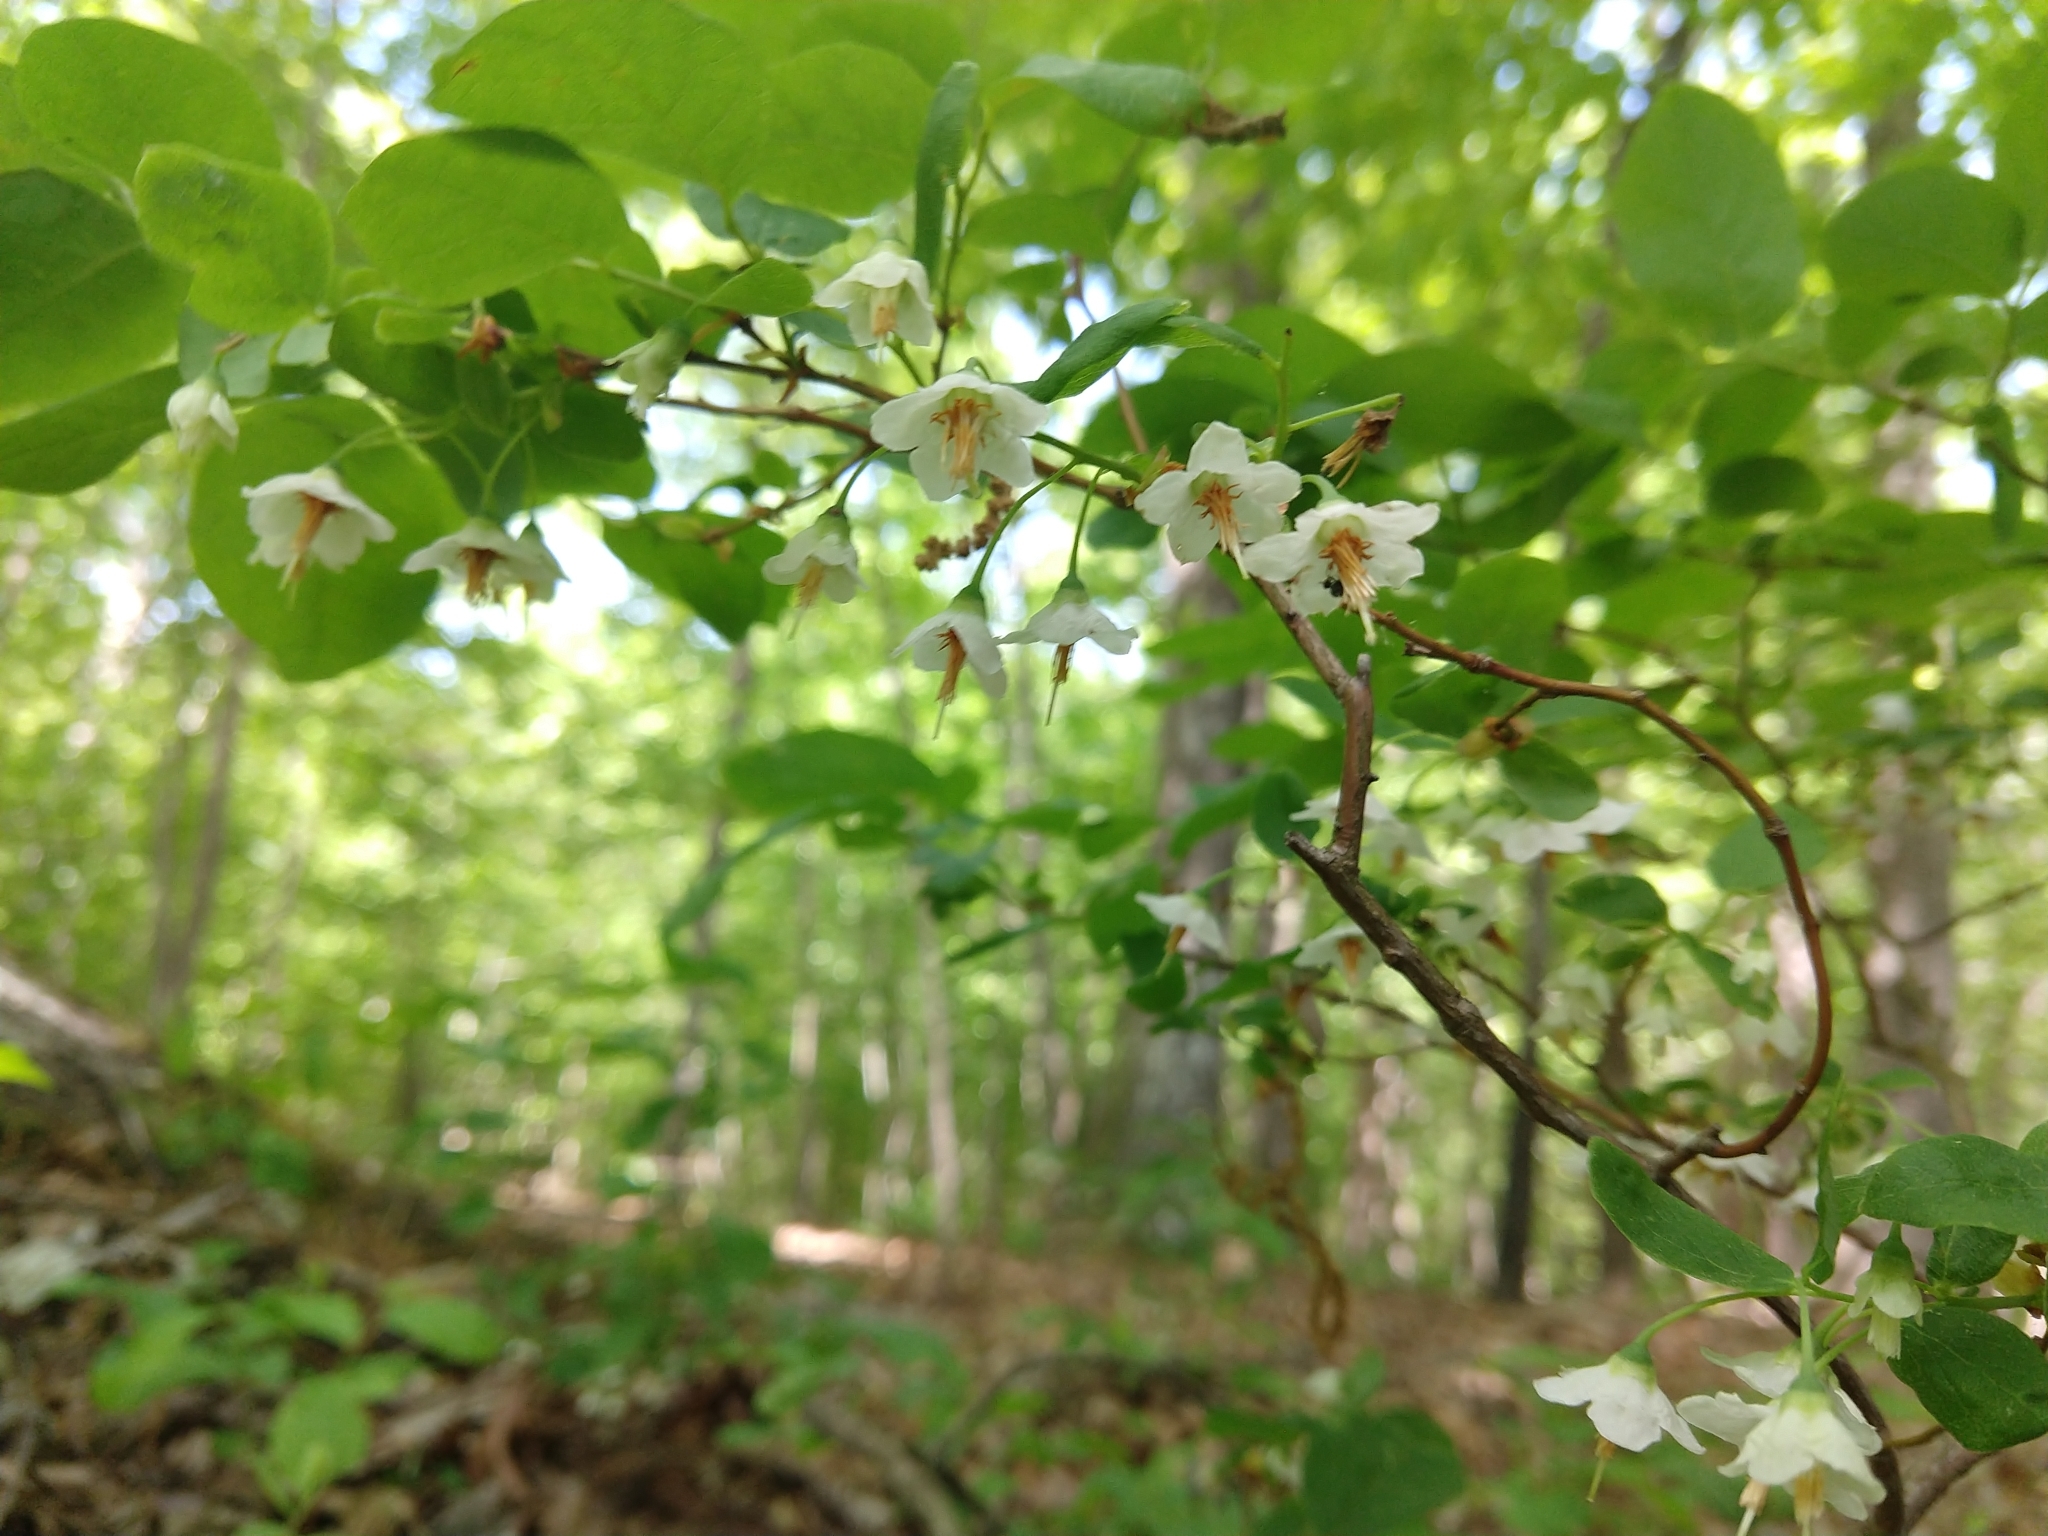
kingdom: Plantae
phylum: Tracheophyta
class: Magnoliopsida
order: Ericales
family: Ericaceae
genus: Vaccinium
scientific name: Vaccinium stamineum
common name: Deerberry
